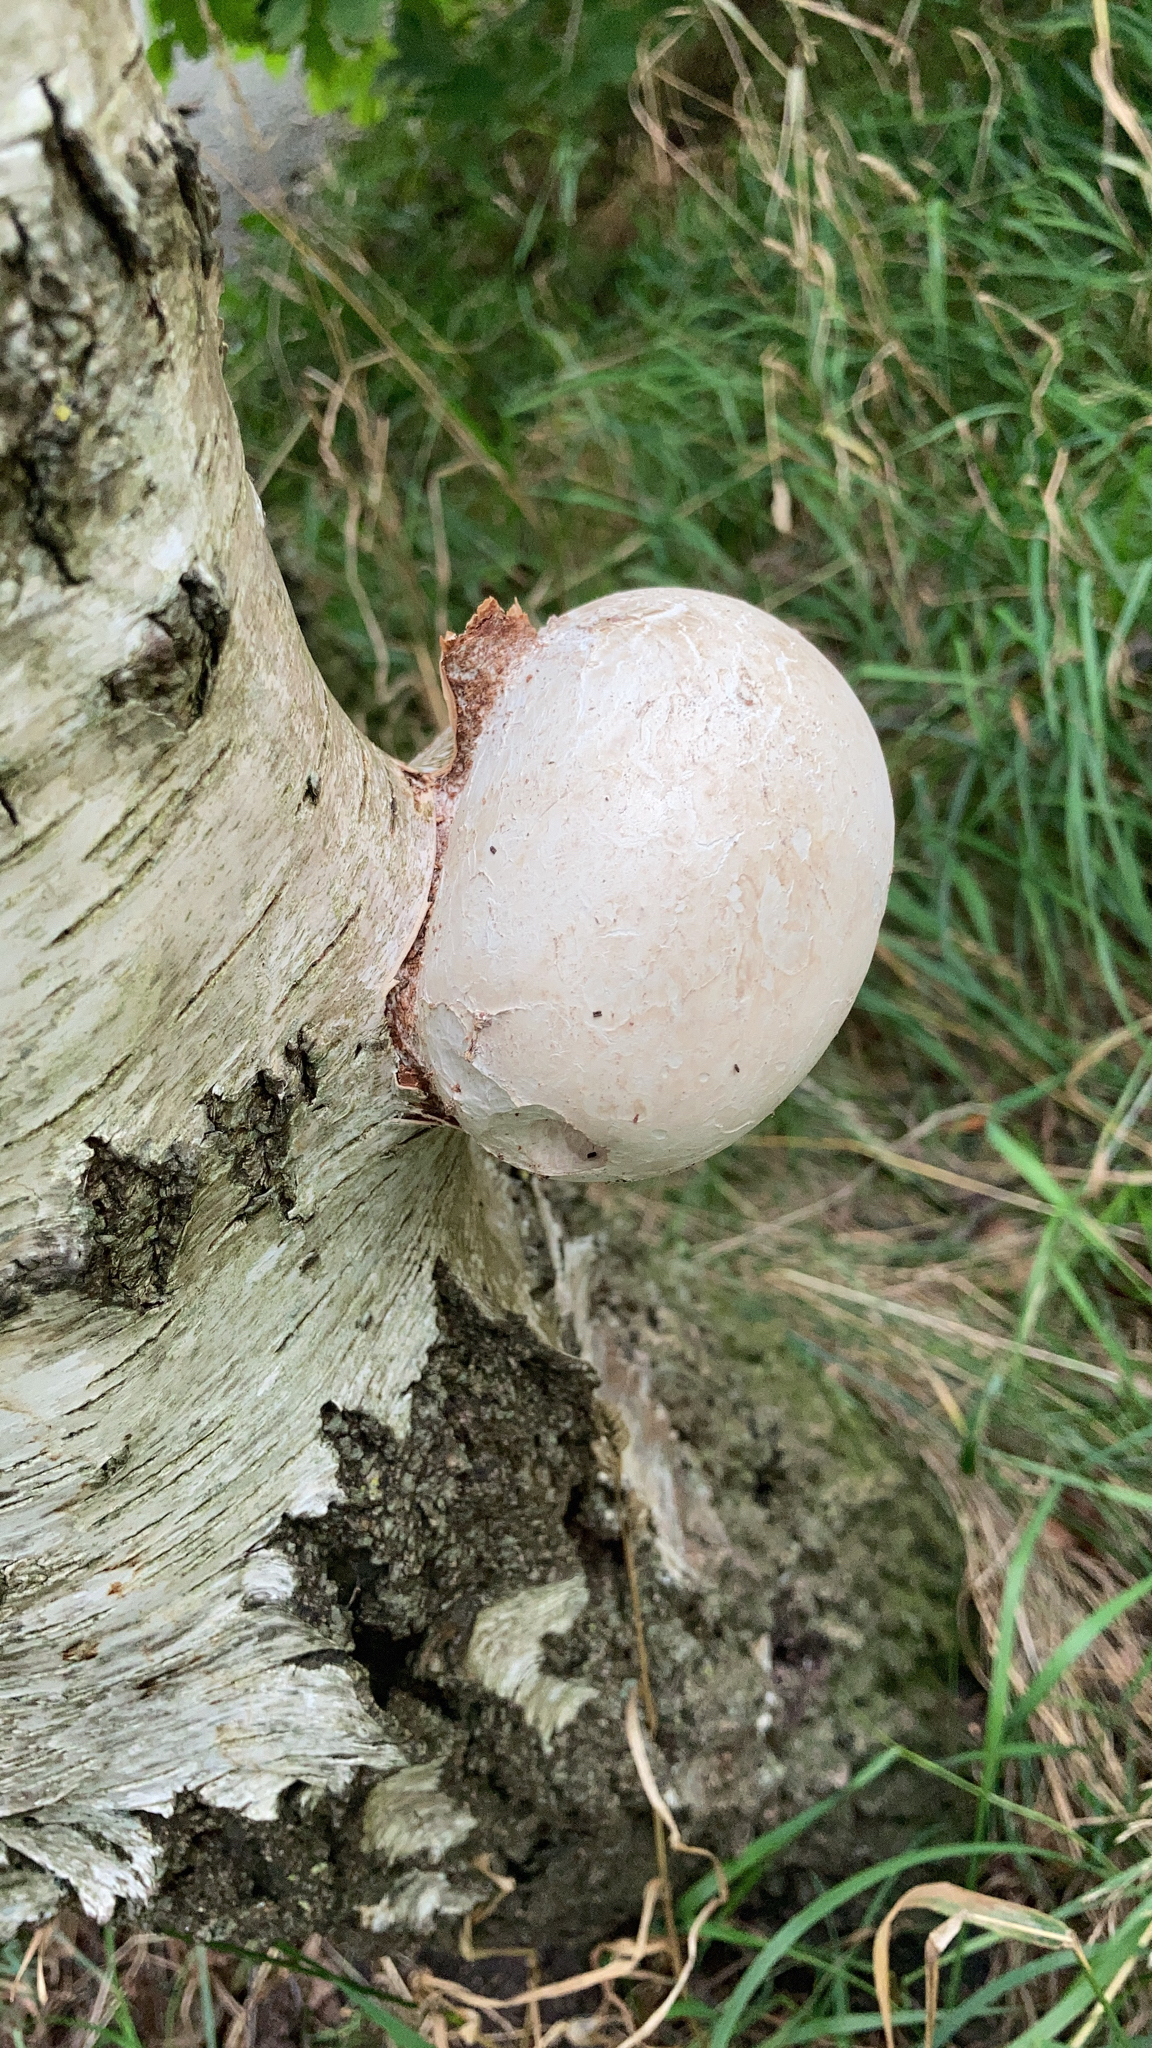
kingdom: Fungi
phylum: Basidiomycota
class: Agaricomycetes
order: Polyporales
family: Fomitopsidaceae
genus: Fomitopsis
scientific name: Fomitopsis betulina
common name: Birch polypore
